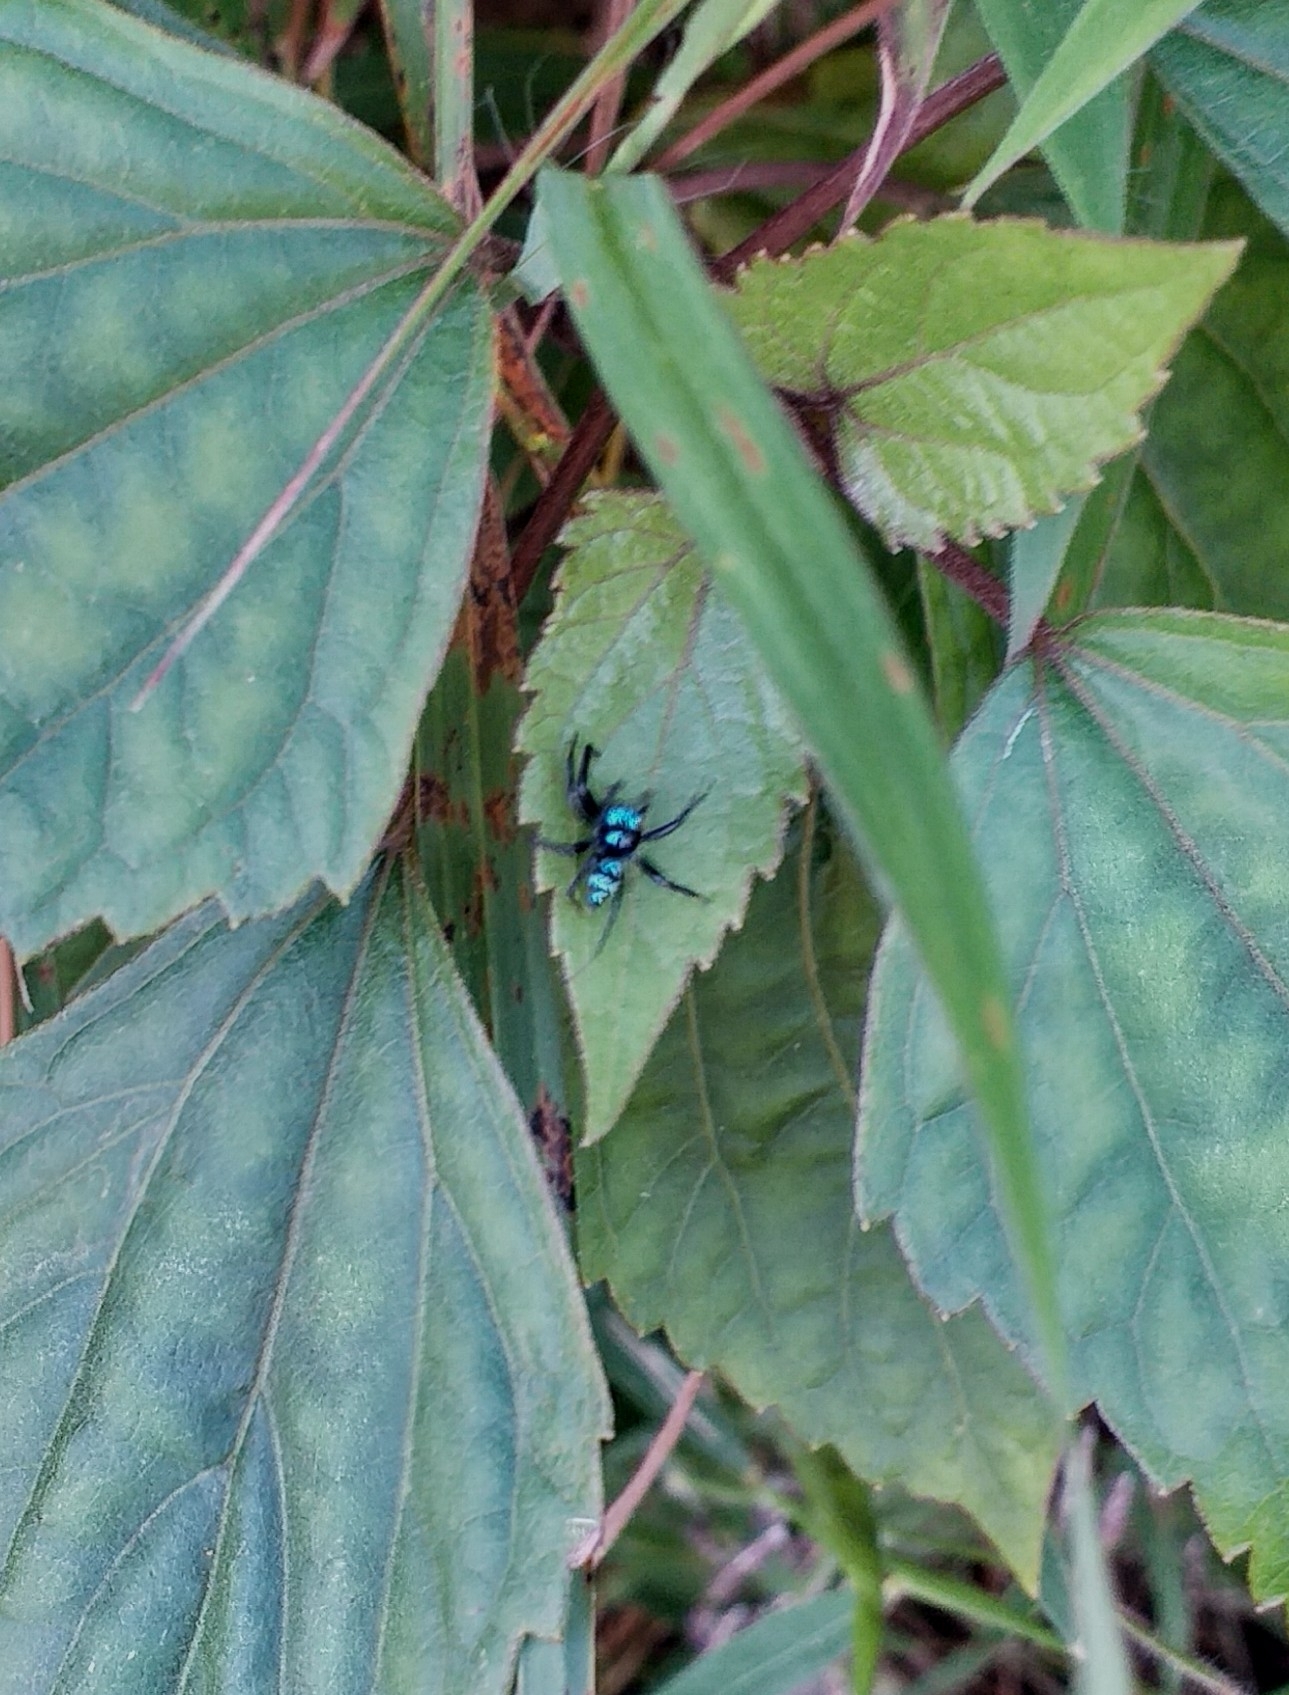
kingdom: Animalia
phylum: Arthropoda
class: Arachnida
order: Araneae
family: Salticidae
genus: Phintella
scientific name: Phintella vittata
